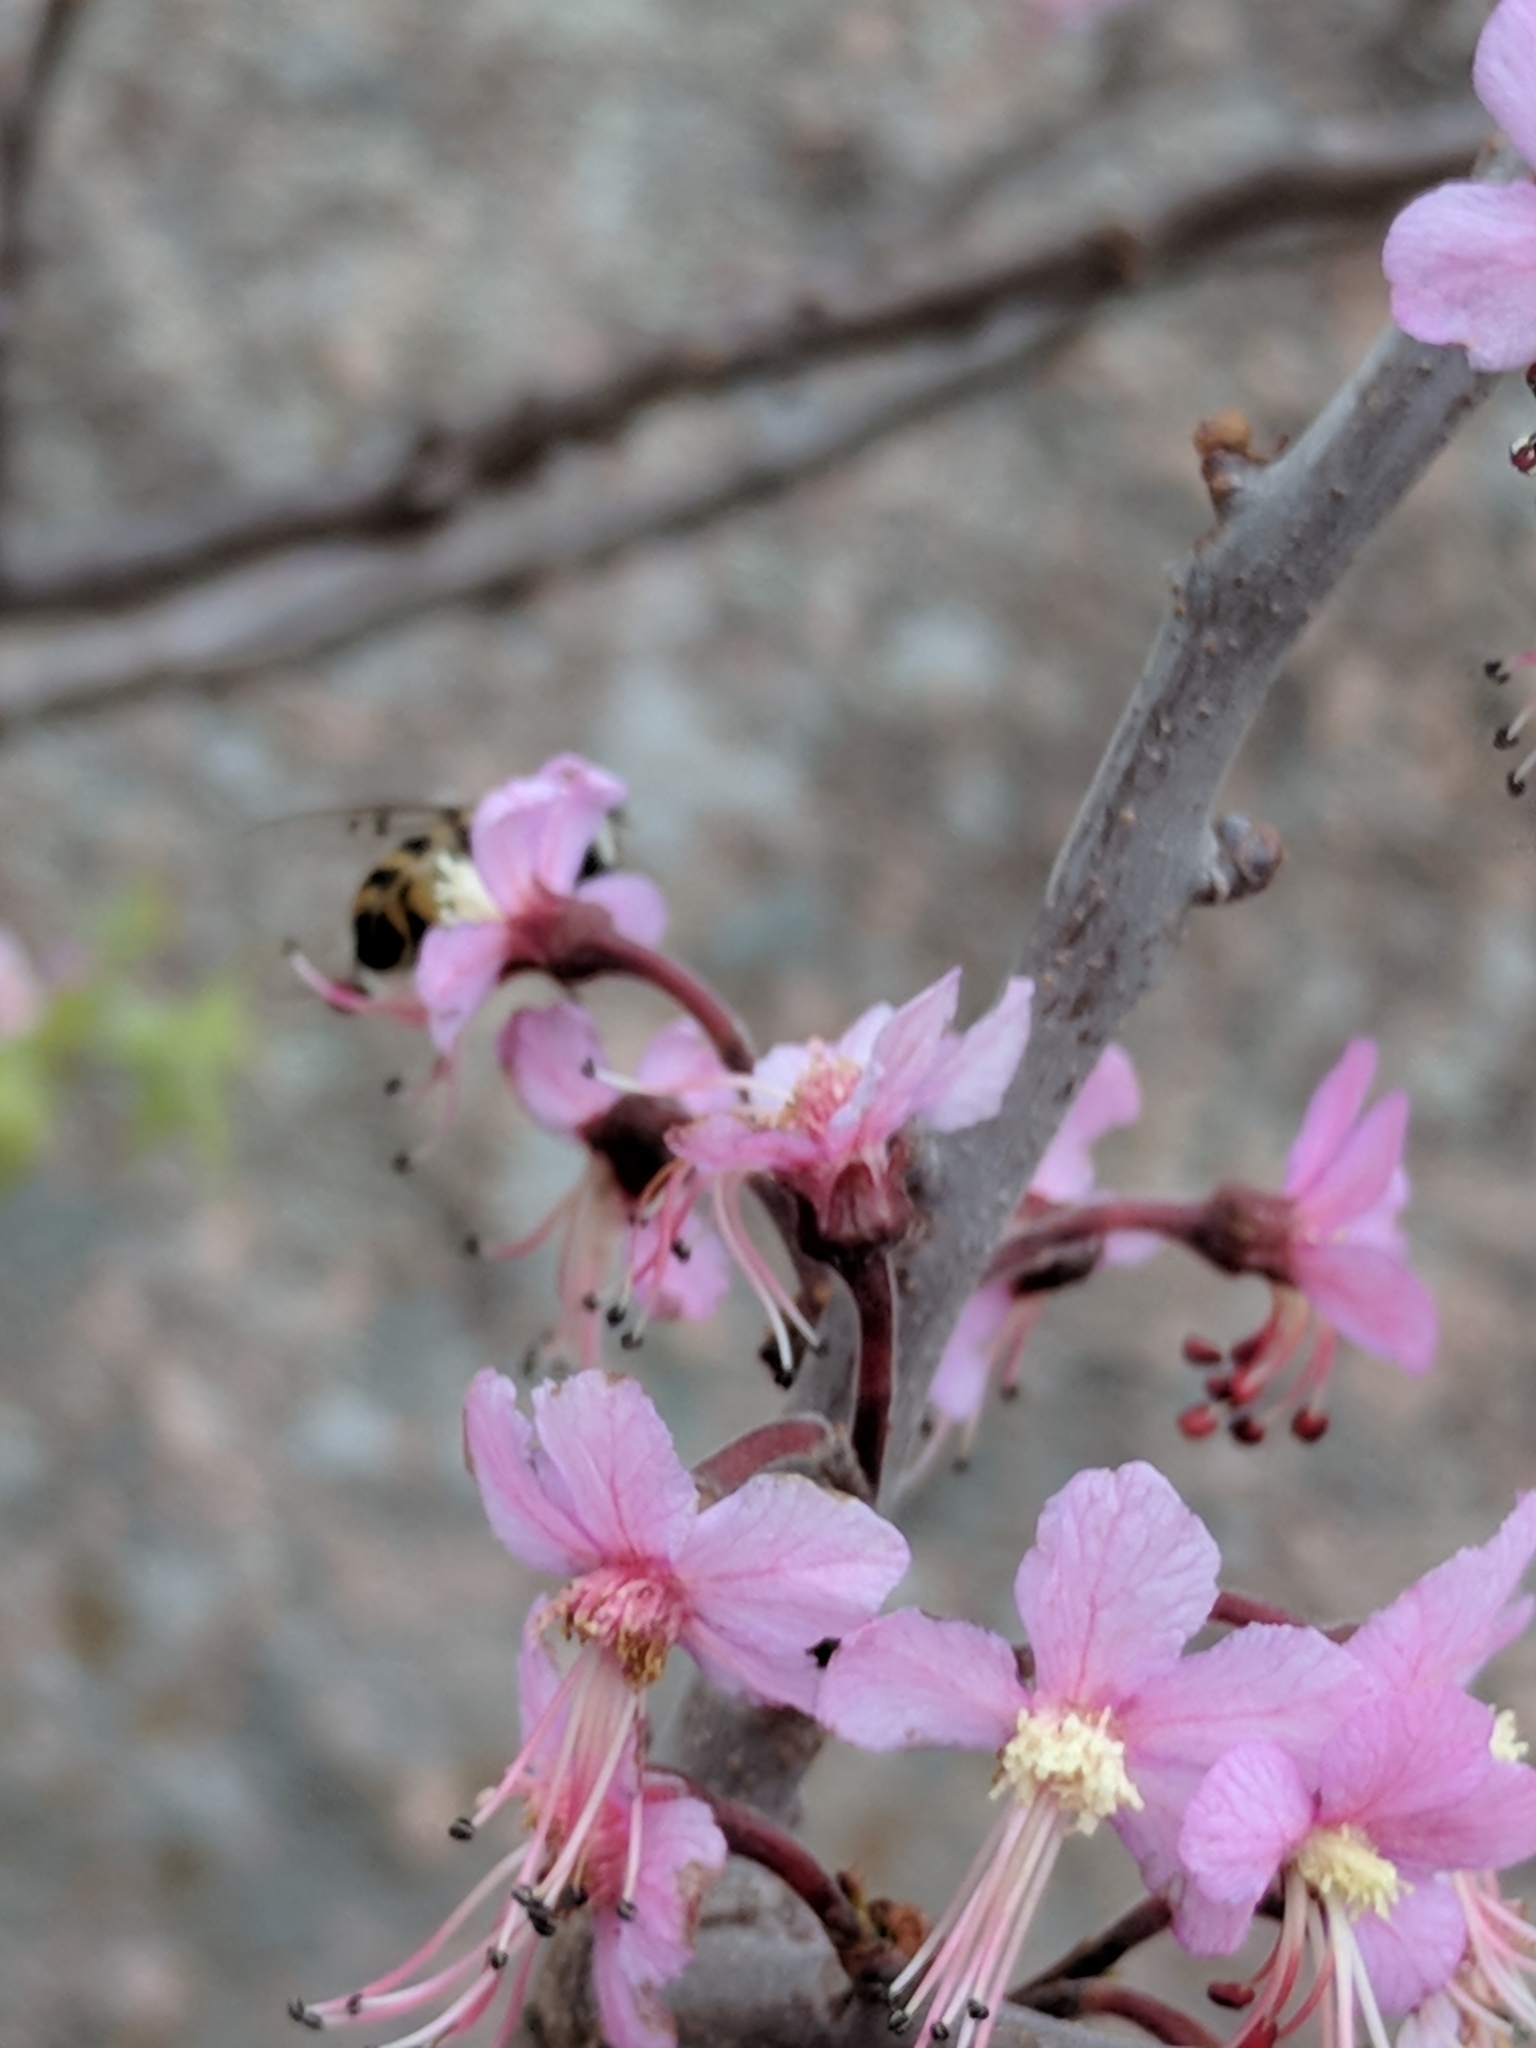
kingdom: Animalia
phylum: Arthropoda
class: Insecta
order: Diptera
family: Syrphidae
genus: Copestylum
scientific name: Copestylum avidum
